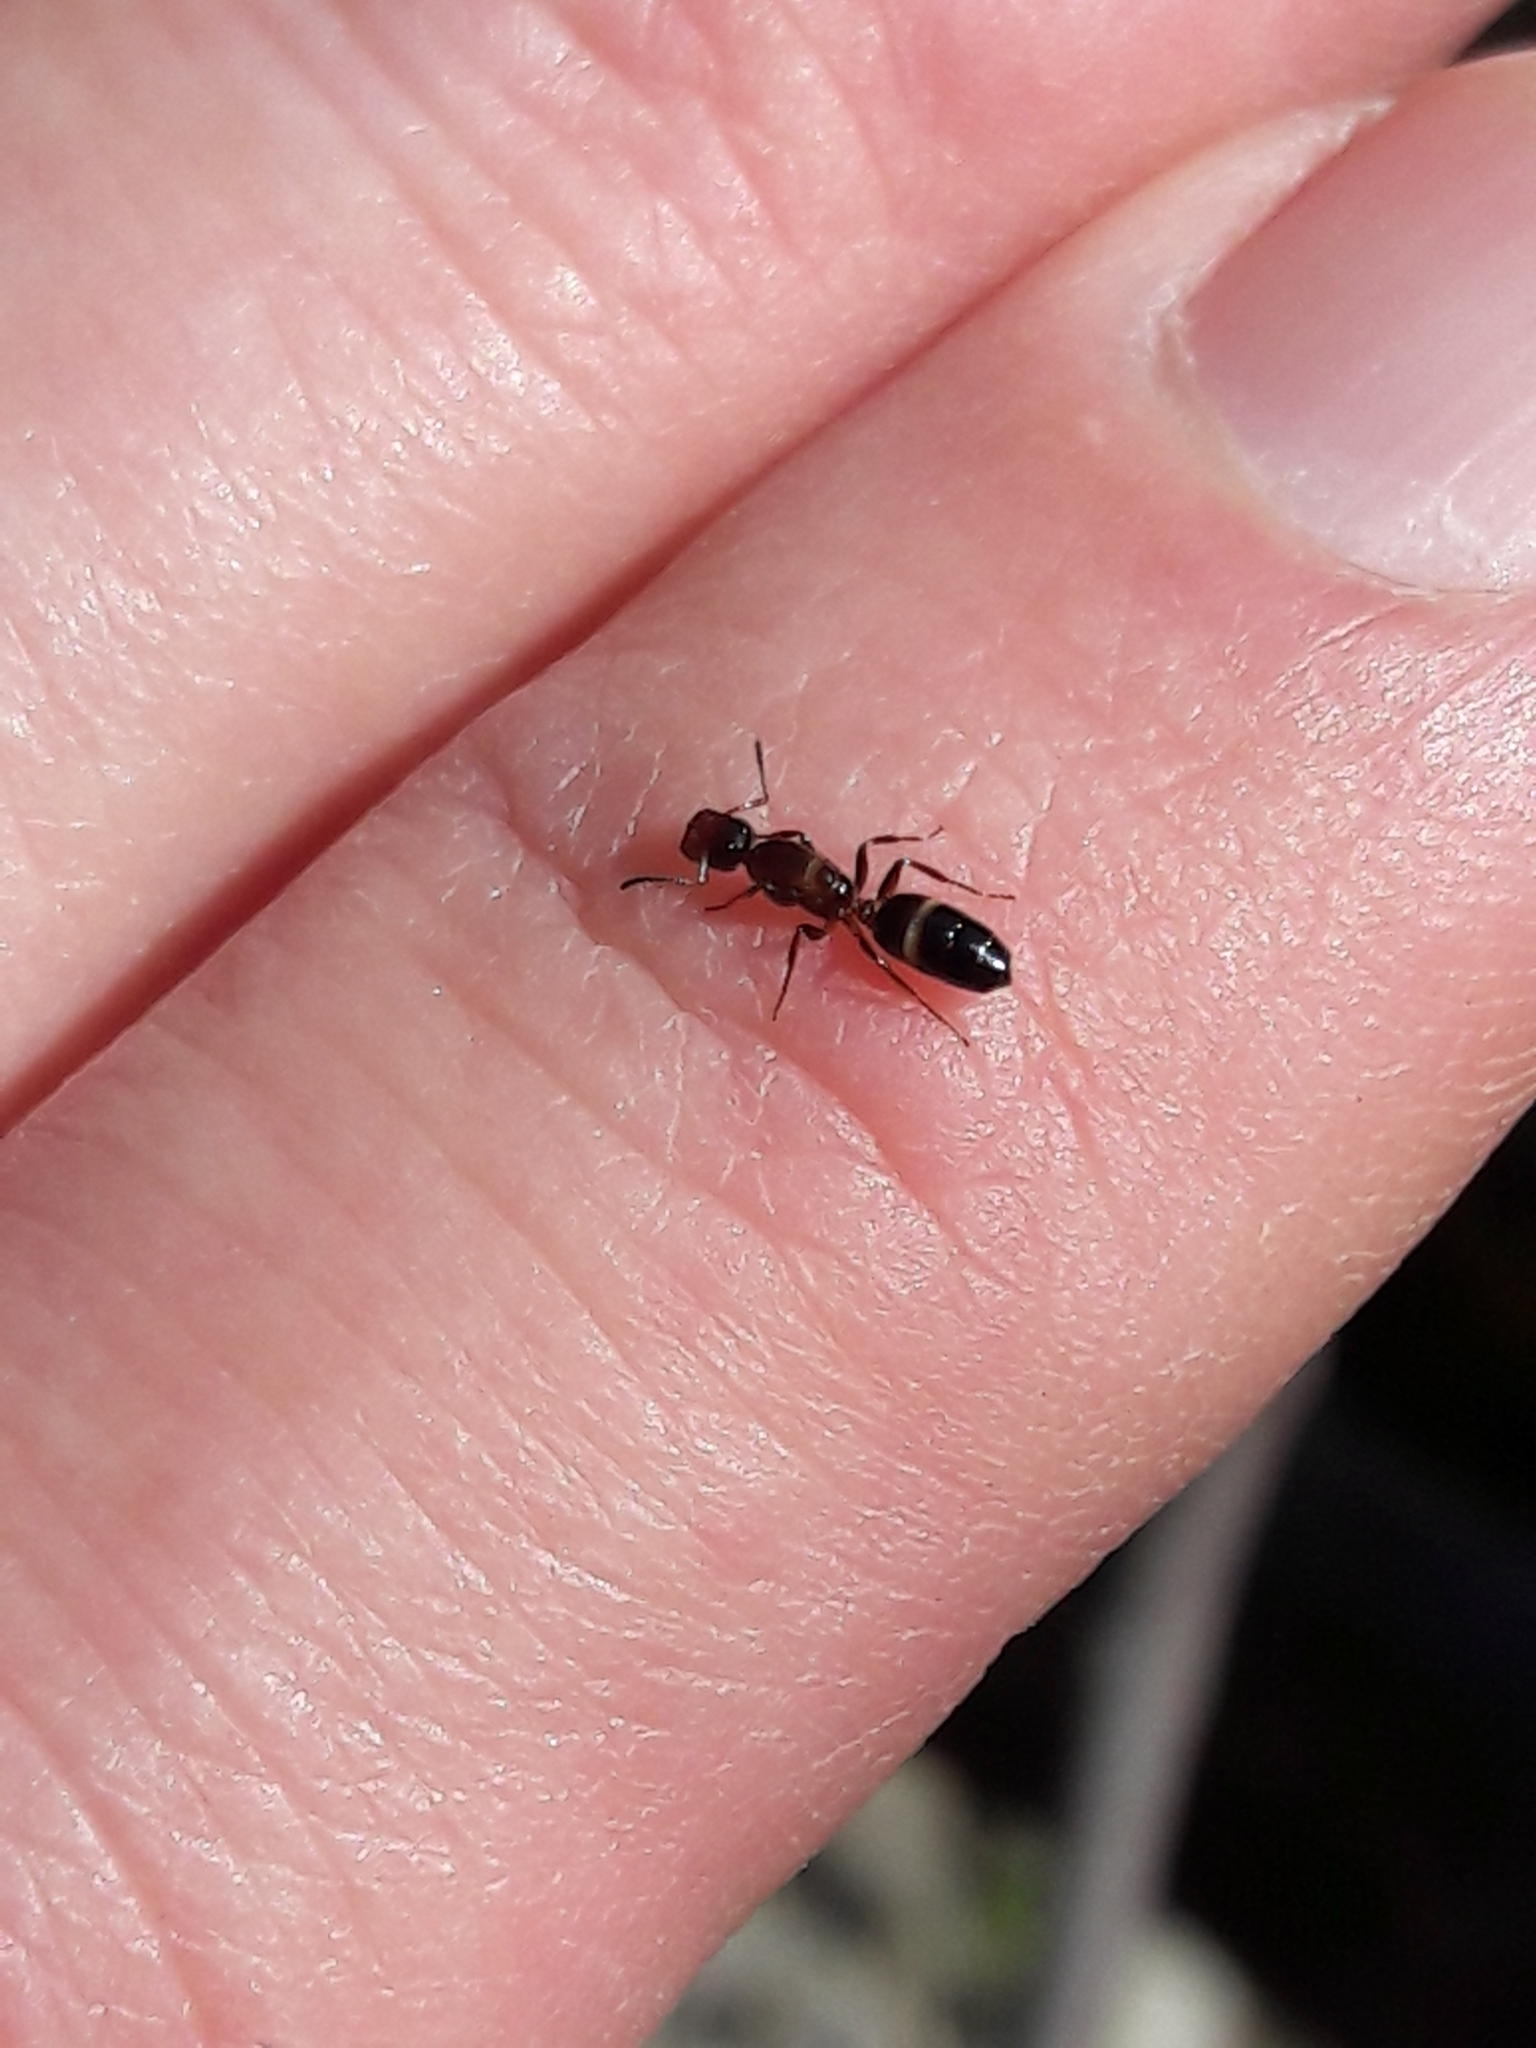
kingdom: Animalia
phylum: Arthropoda
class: Insecta
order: Hymenoptera
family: Formicidae
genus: Camponotus
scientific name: Camponotus truncatus
